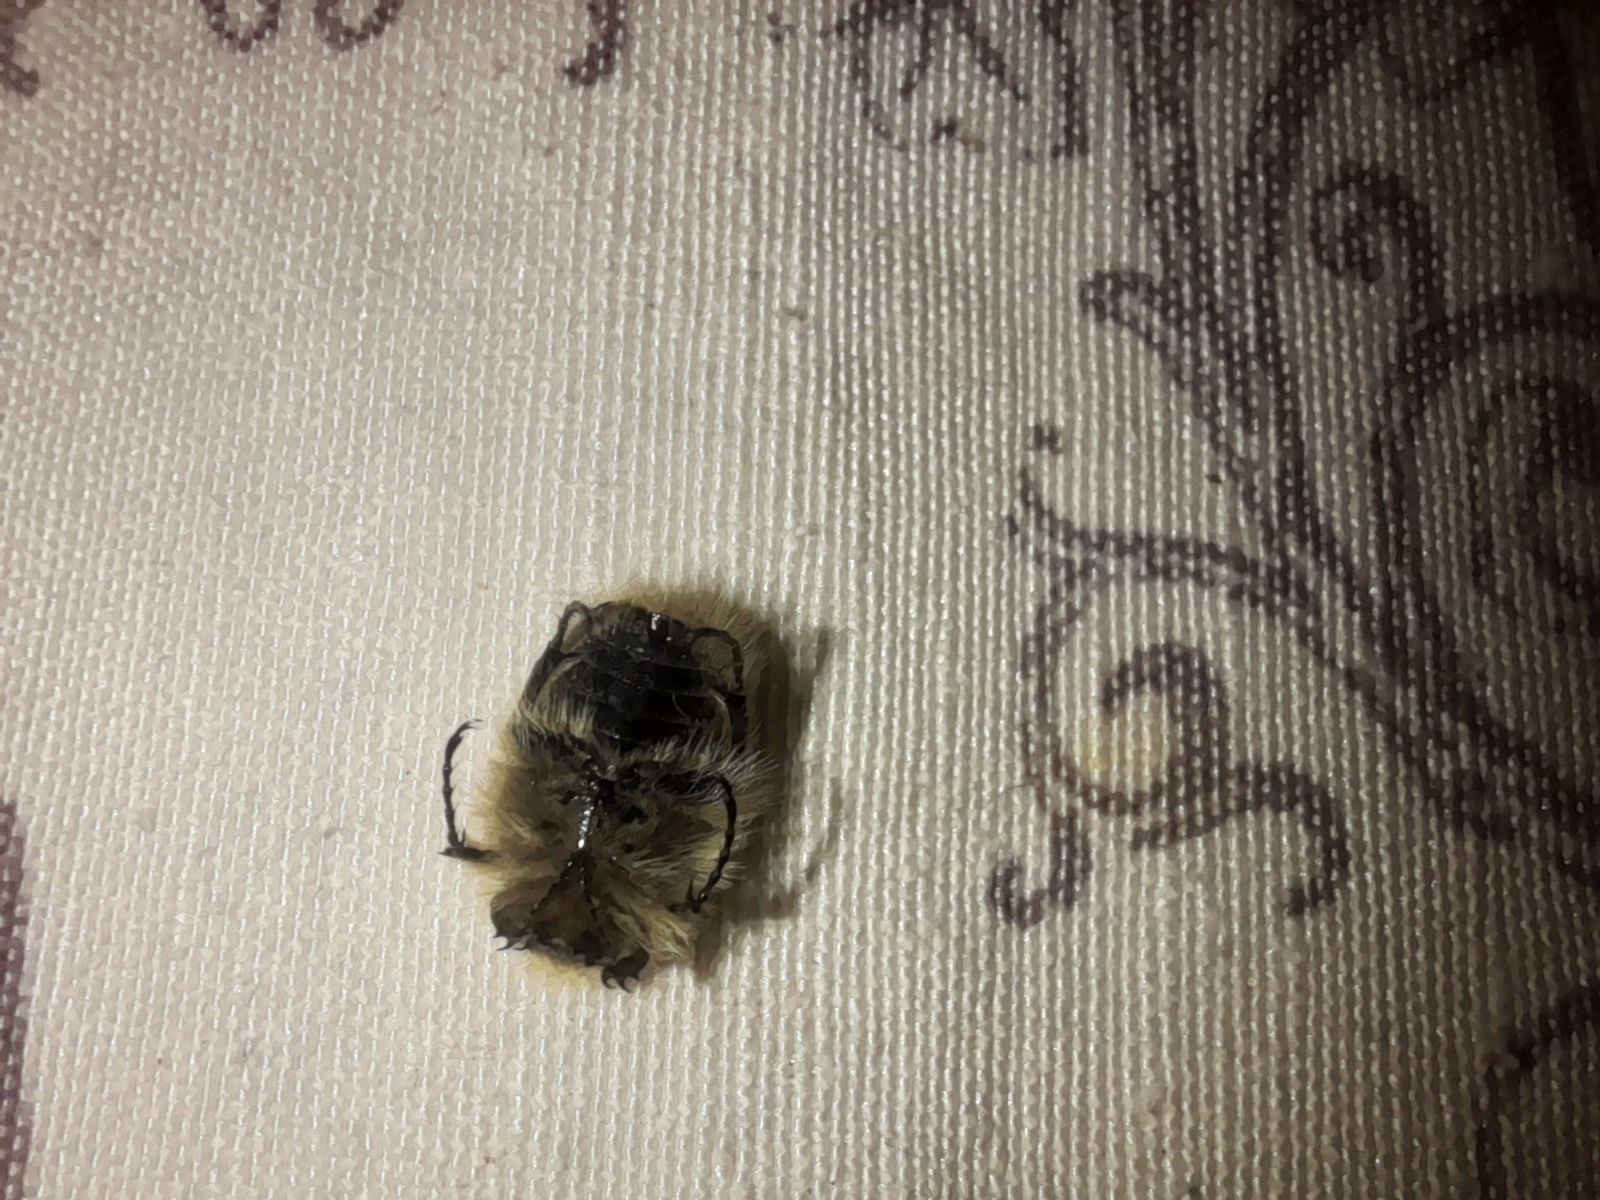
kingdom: Animalia
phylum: Arthropoda
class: Insecta
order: Coleoptera
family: Scarabaeidae
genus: Tropinota
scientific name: Tropinota squalida
